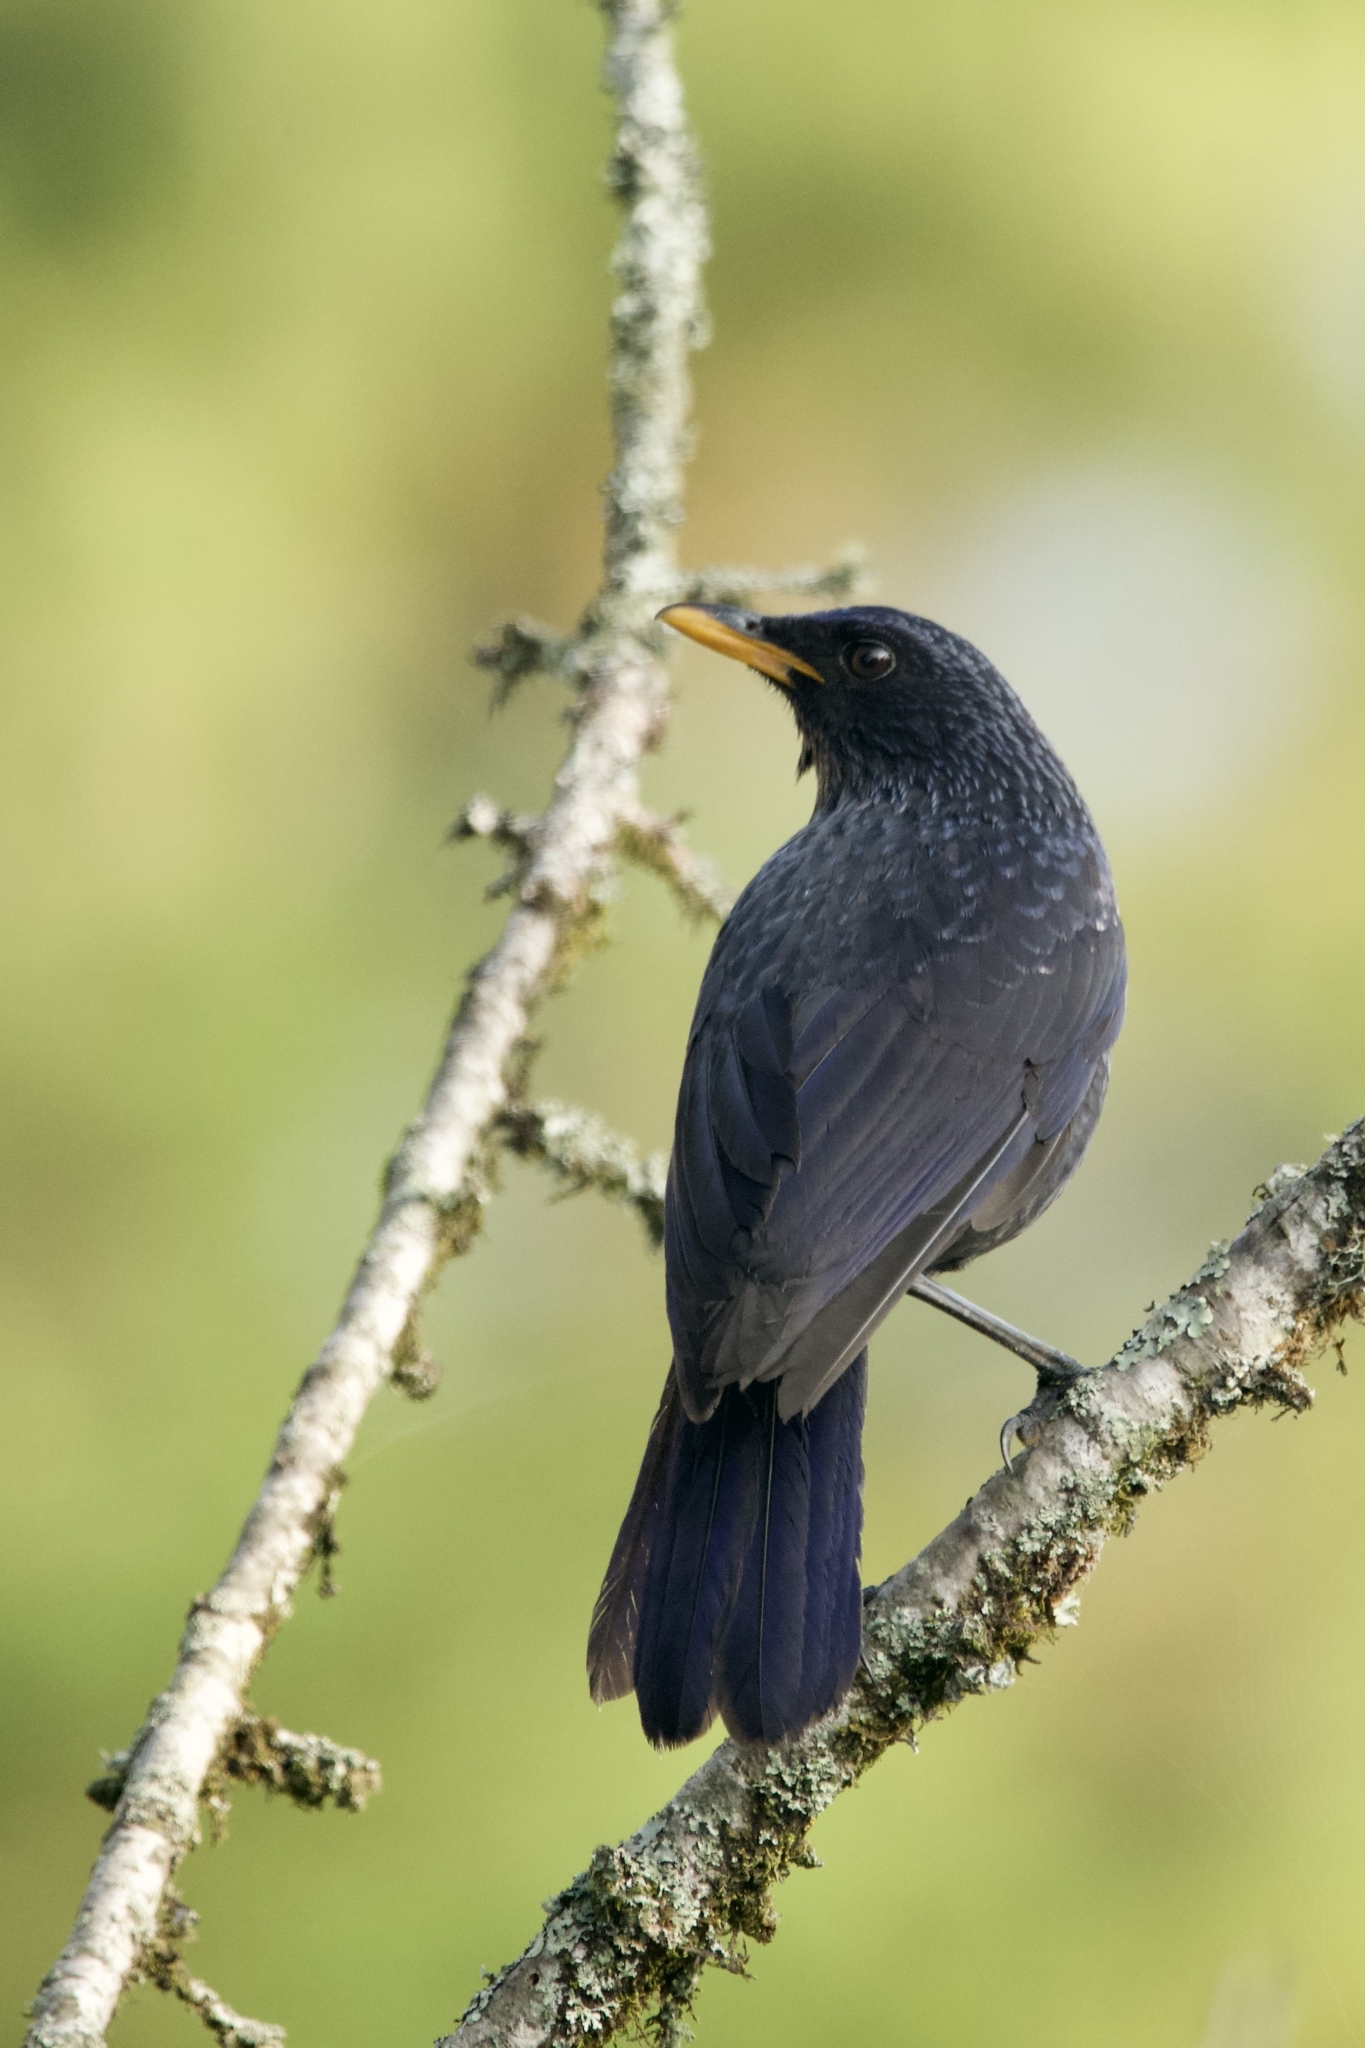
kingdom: Animalia
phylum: Chordata
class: Aves
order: Passeriformes
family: Muscicapidae
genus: Myophonus
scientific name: Myophonus caeruleus
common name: Blue whistling-thrush
